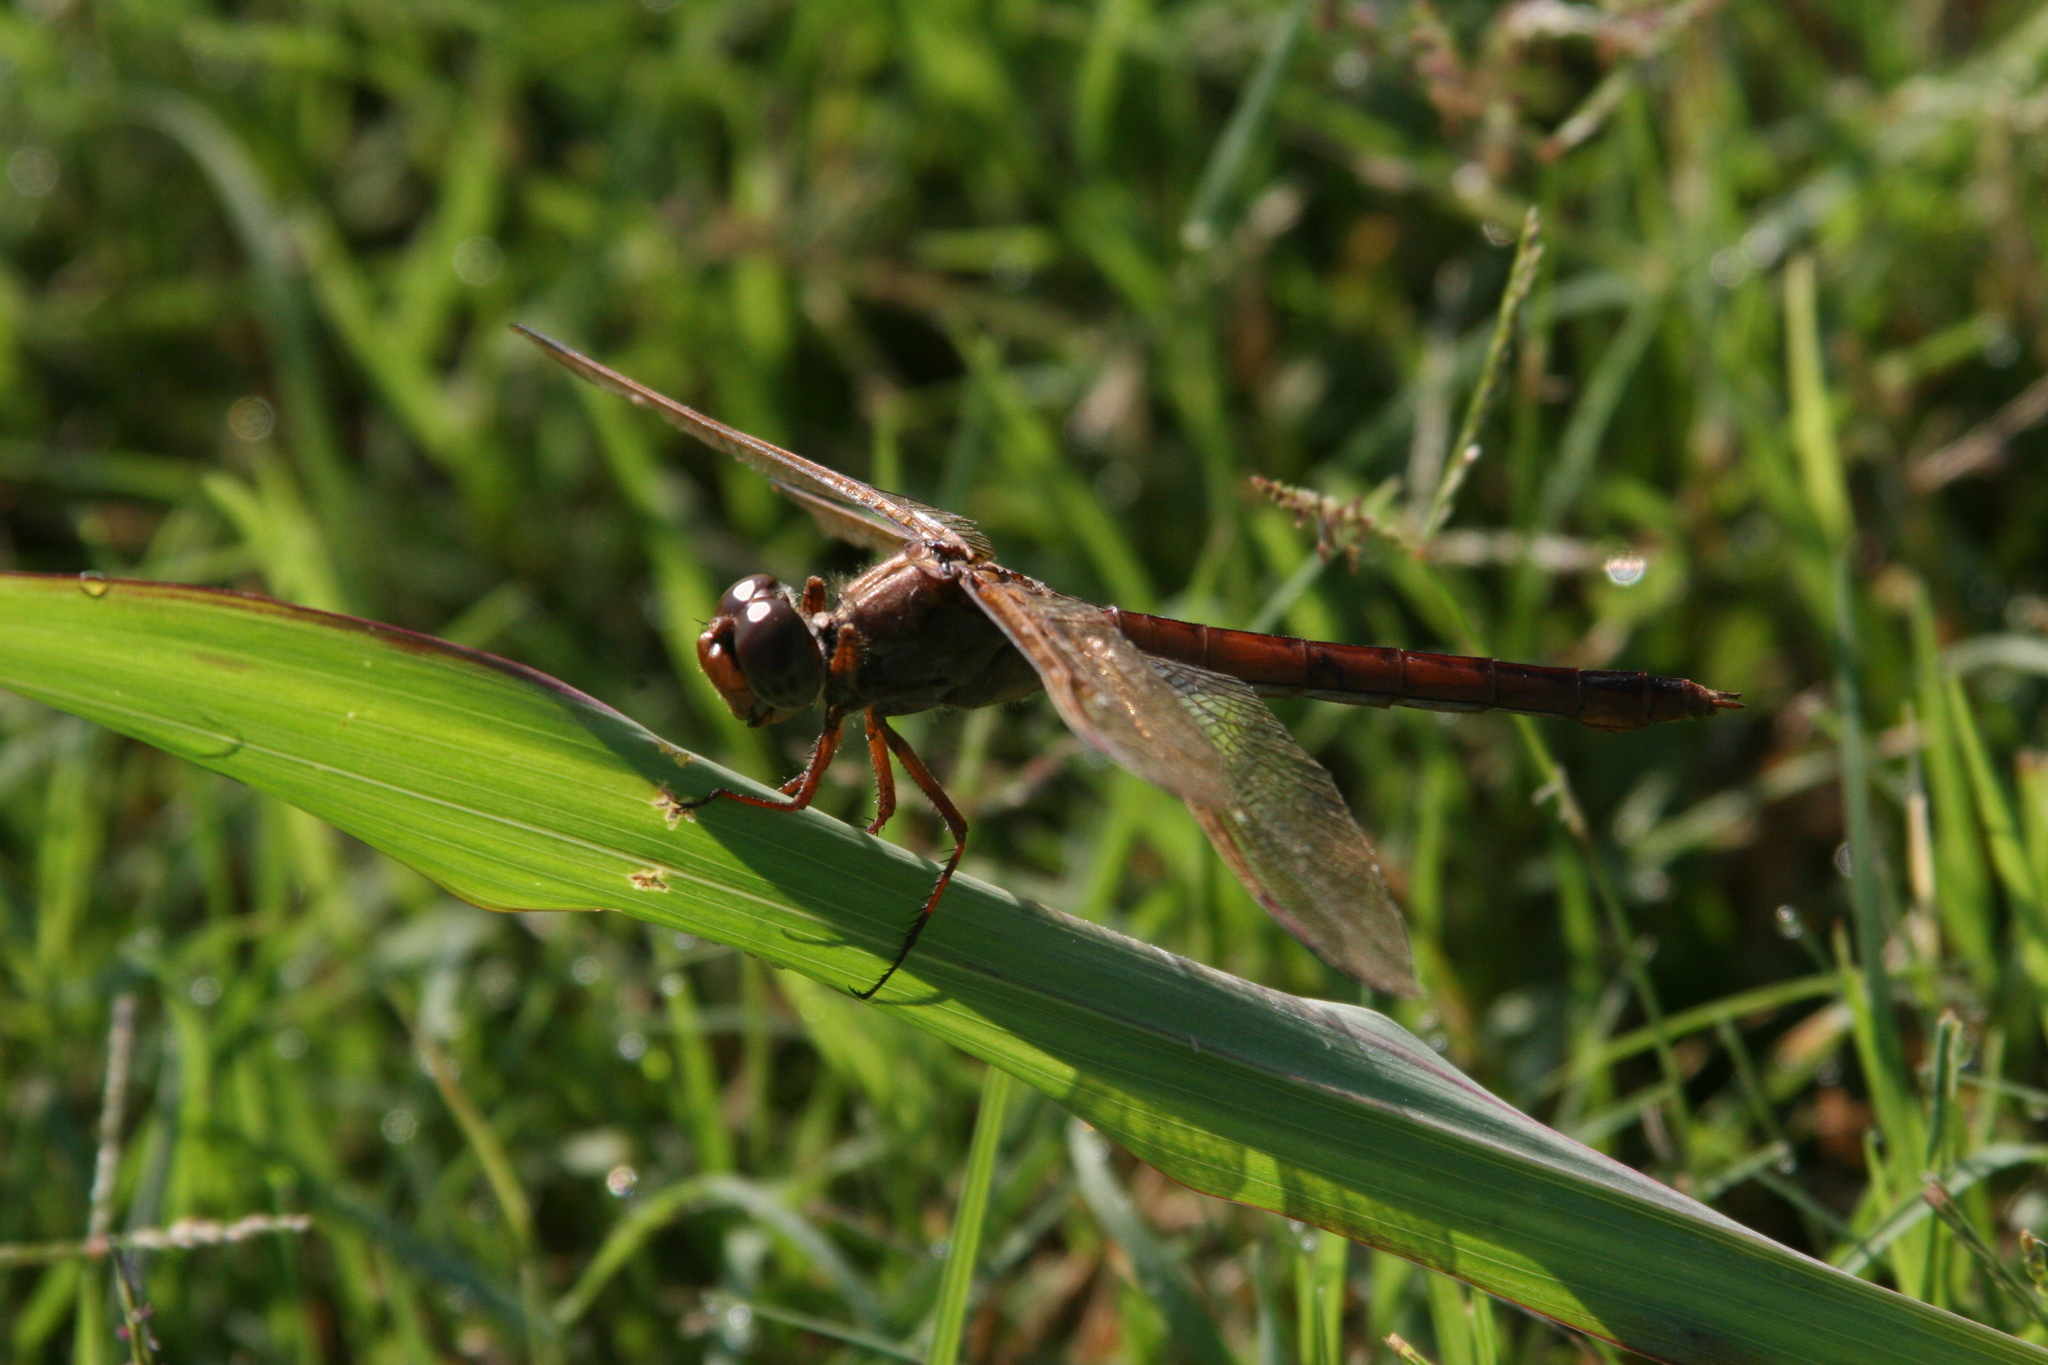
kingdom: Animalia
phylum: Arthropoda
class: Insecta
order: Odonata
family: Libellulidae
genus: Libellula
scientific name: Libellula needhami
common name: Needham's skimmer
